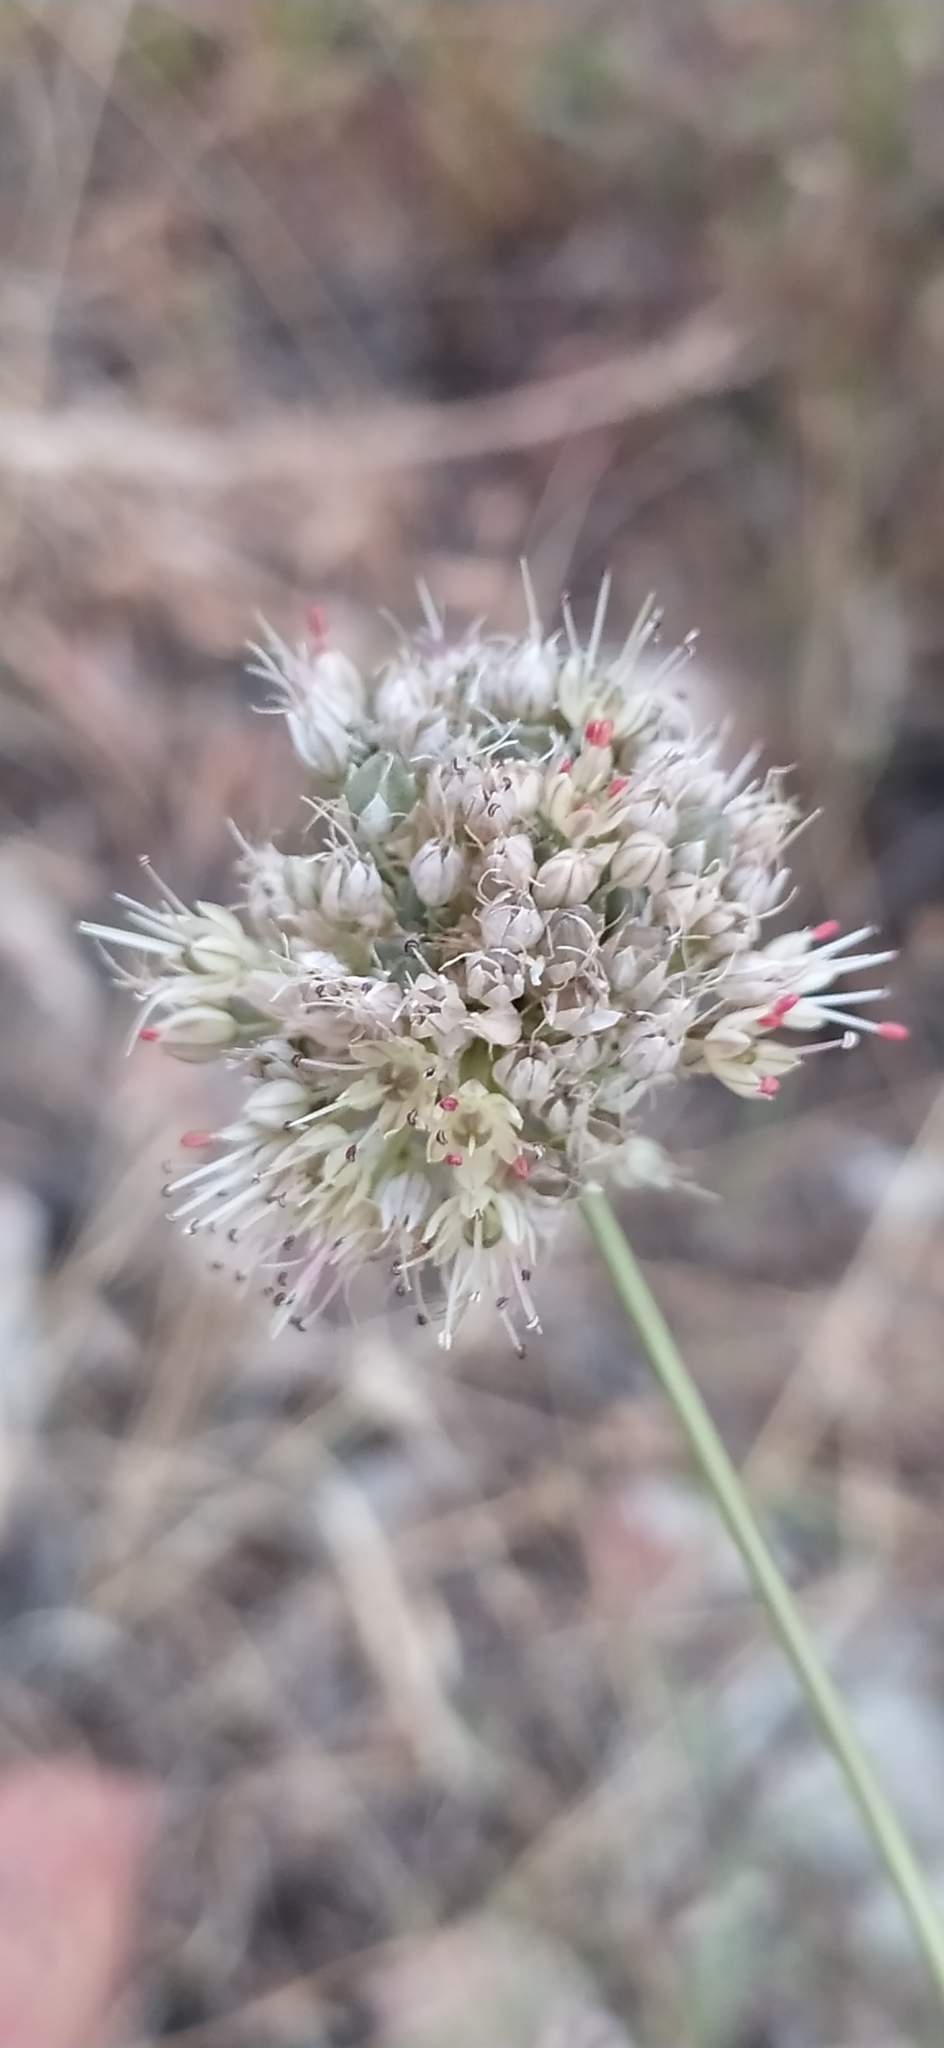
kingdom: Plantae
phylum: Tracheophyta
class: Liliopsida
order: Asparagales
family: Amaryllidaceae
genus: Allium
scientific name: Allium talassicum
